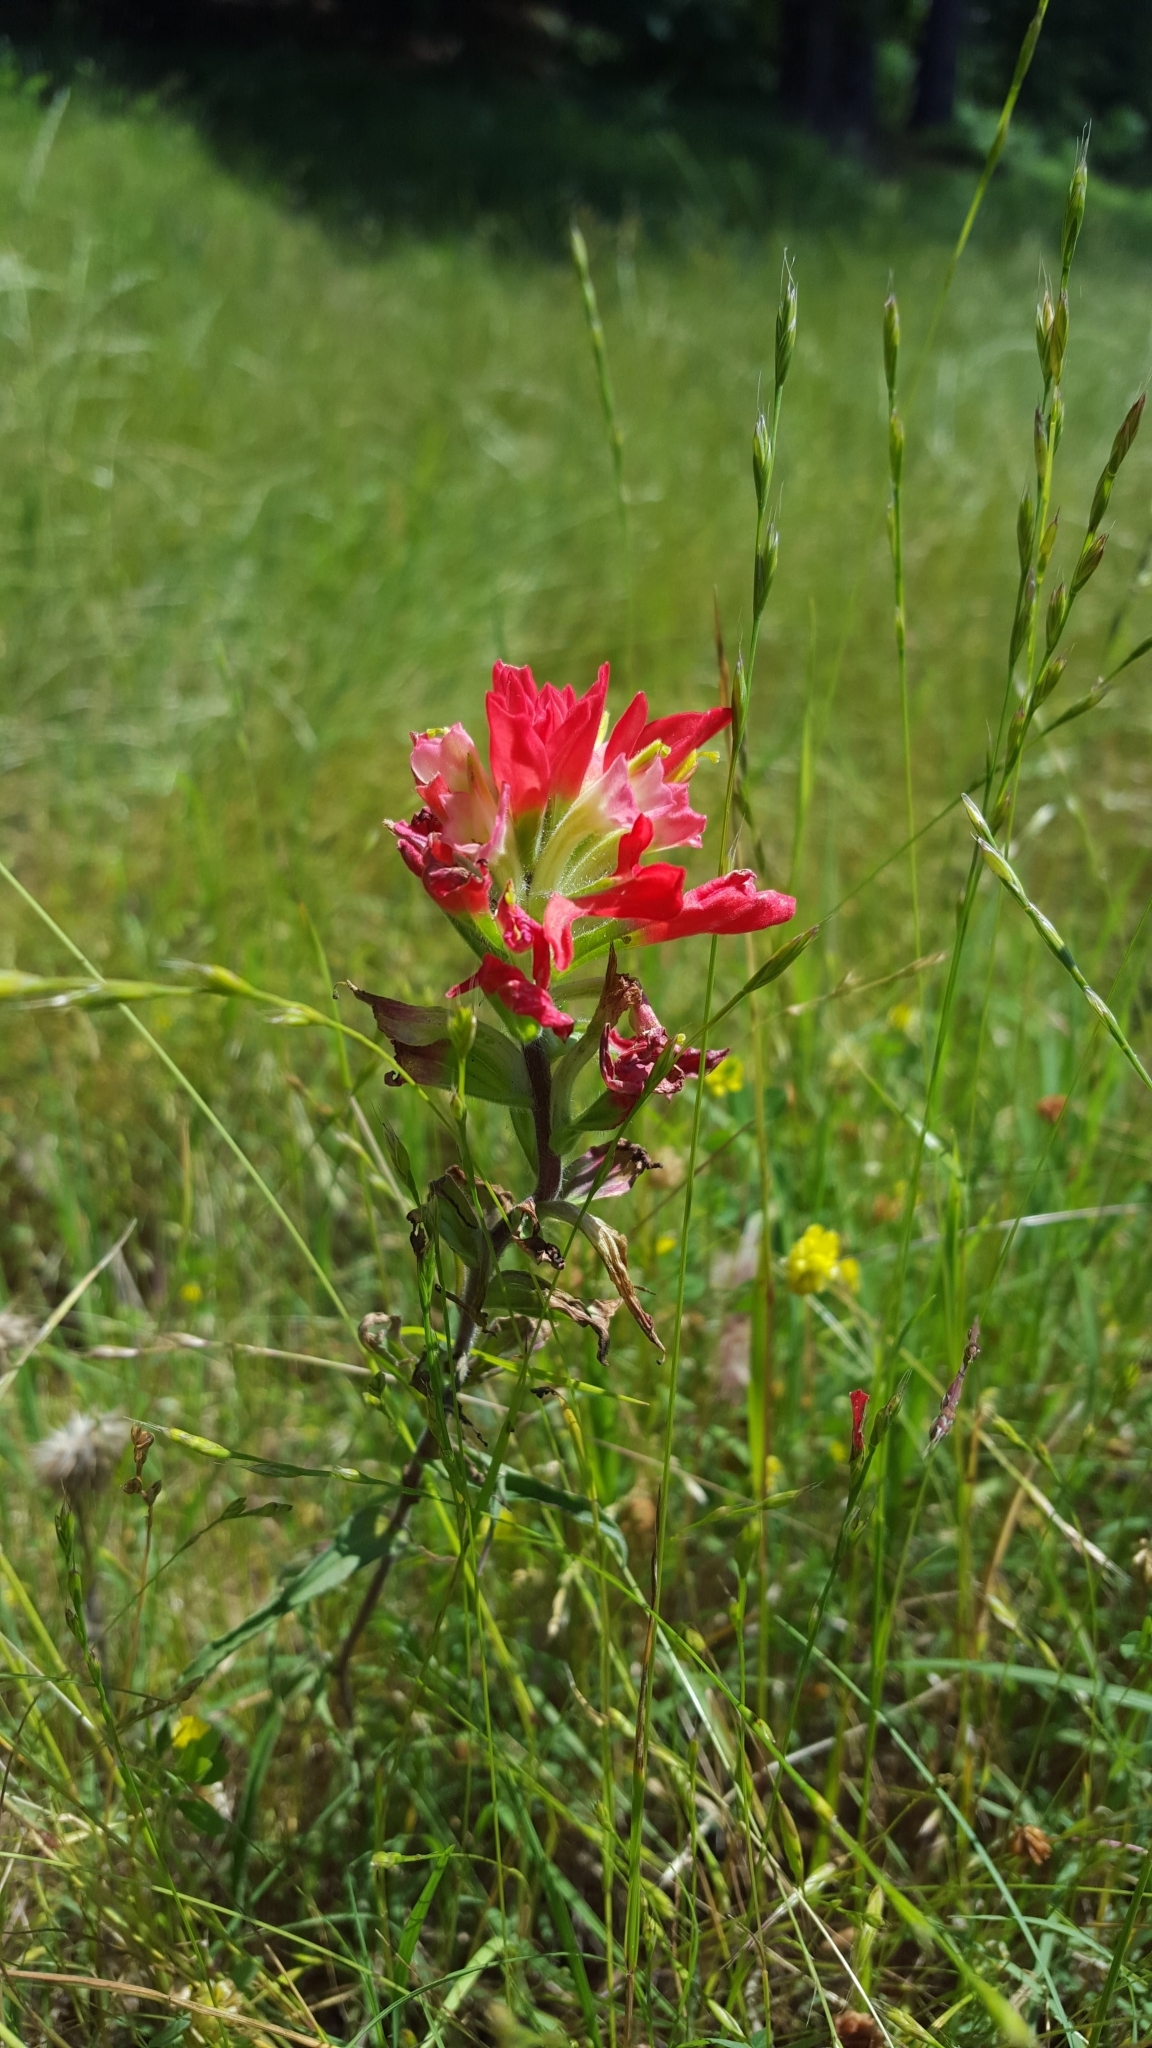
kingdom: Plantae
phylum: Tracheophyta
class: Magnoliopsida
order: Lamiales
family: Orobanchaceae
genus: Castilleja
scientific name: Castilleja indivisa
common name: Texas paintbrush
